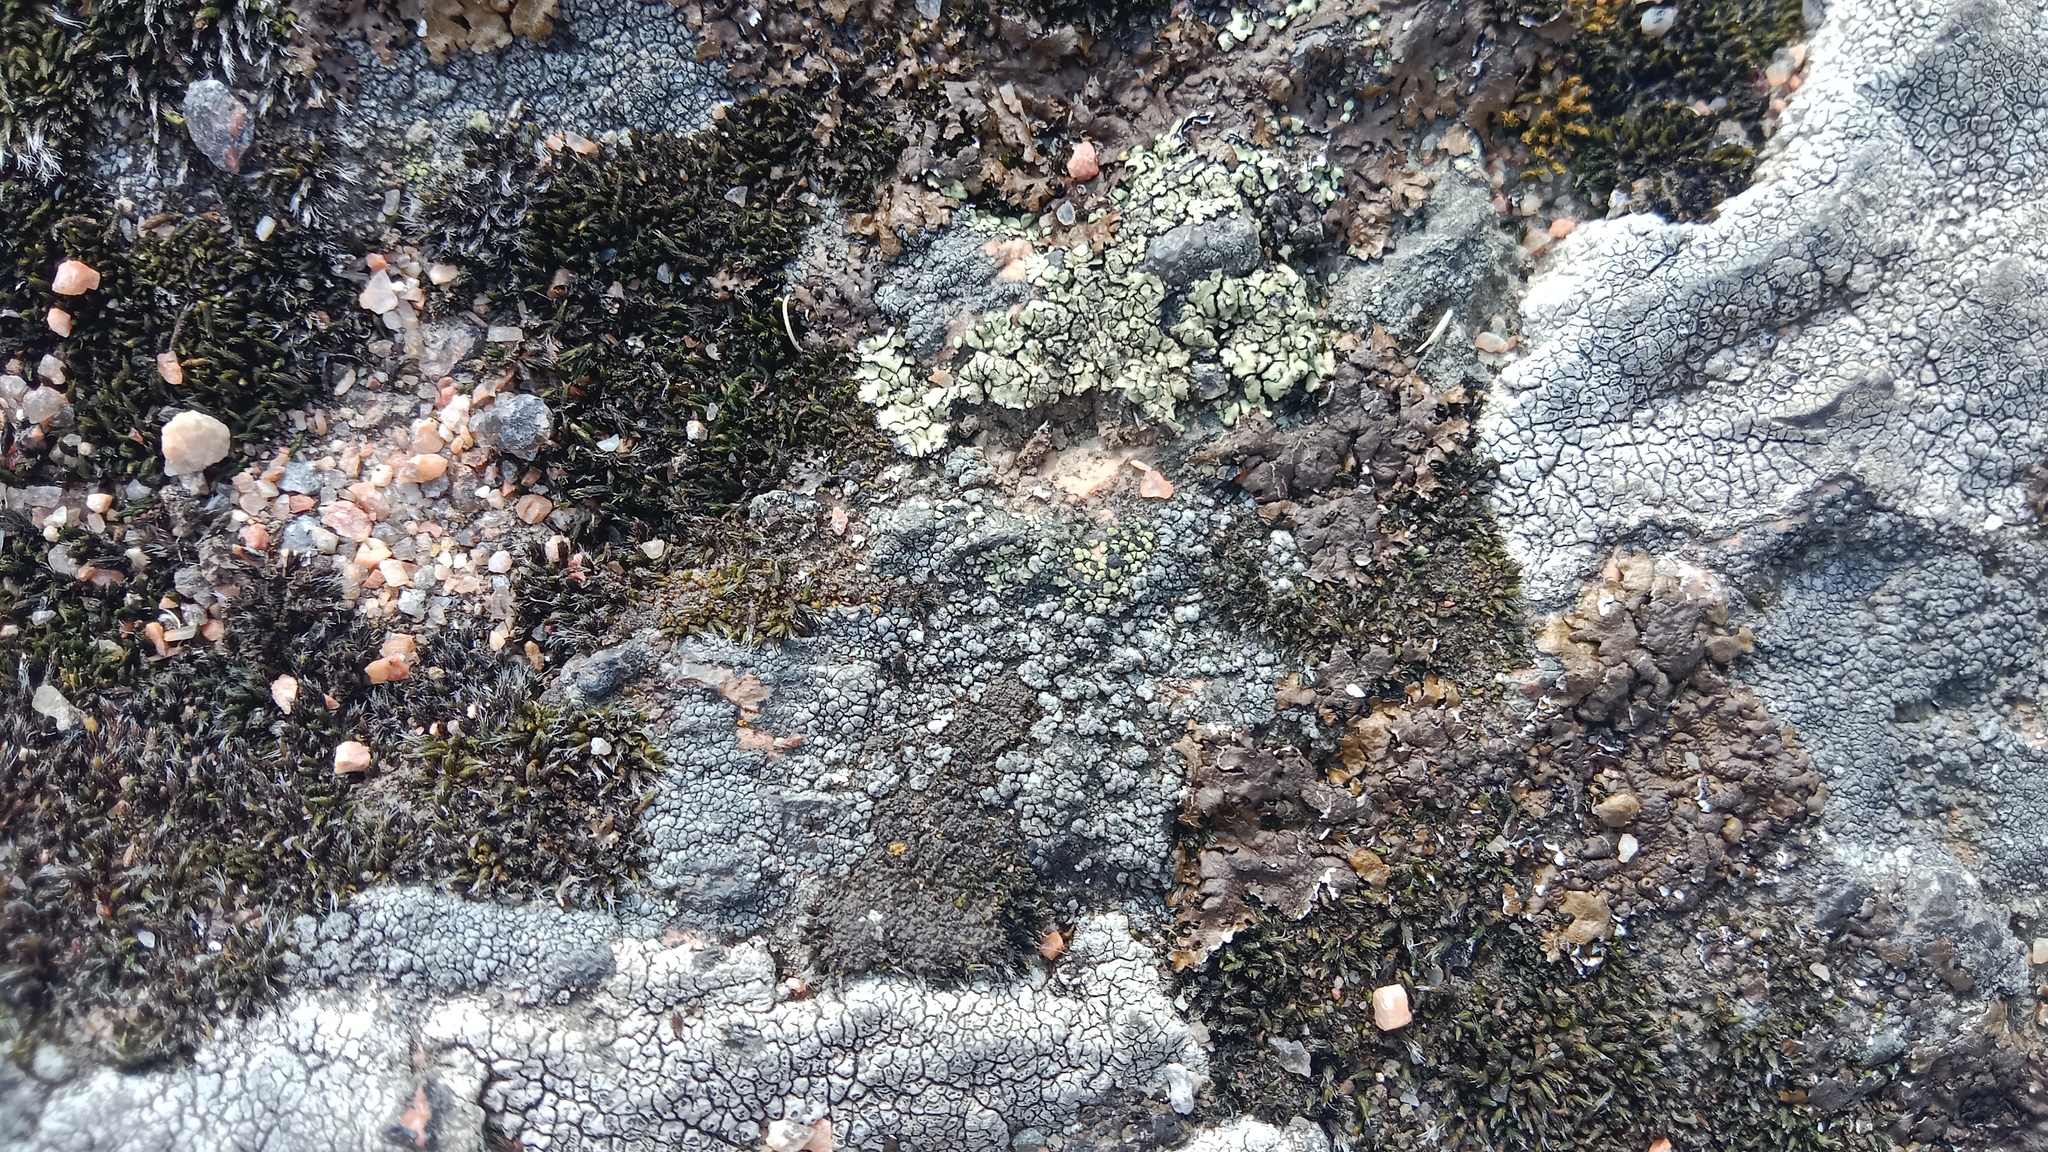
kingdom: Fungi
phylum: Ascomycota
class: Lecanoromycetes
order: Rhizocarpales
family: Rhizocarpaceae
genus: Rhizocarpon
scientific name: Rhizocarpon viridiatrum
